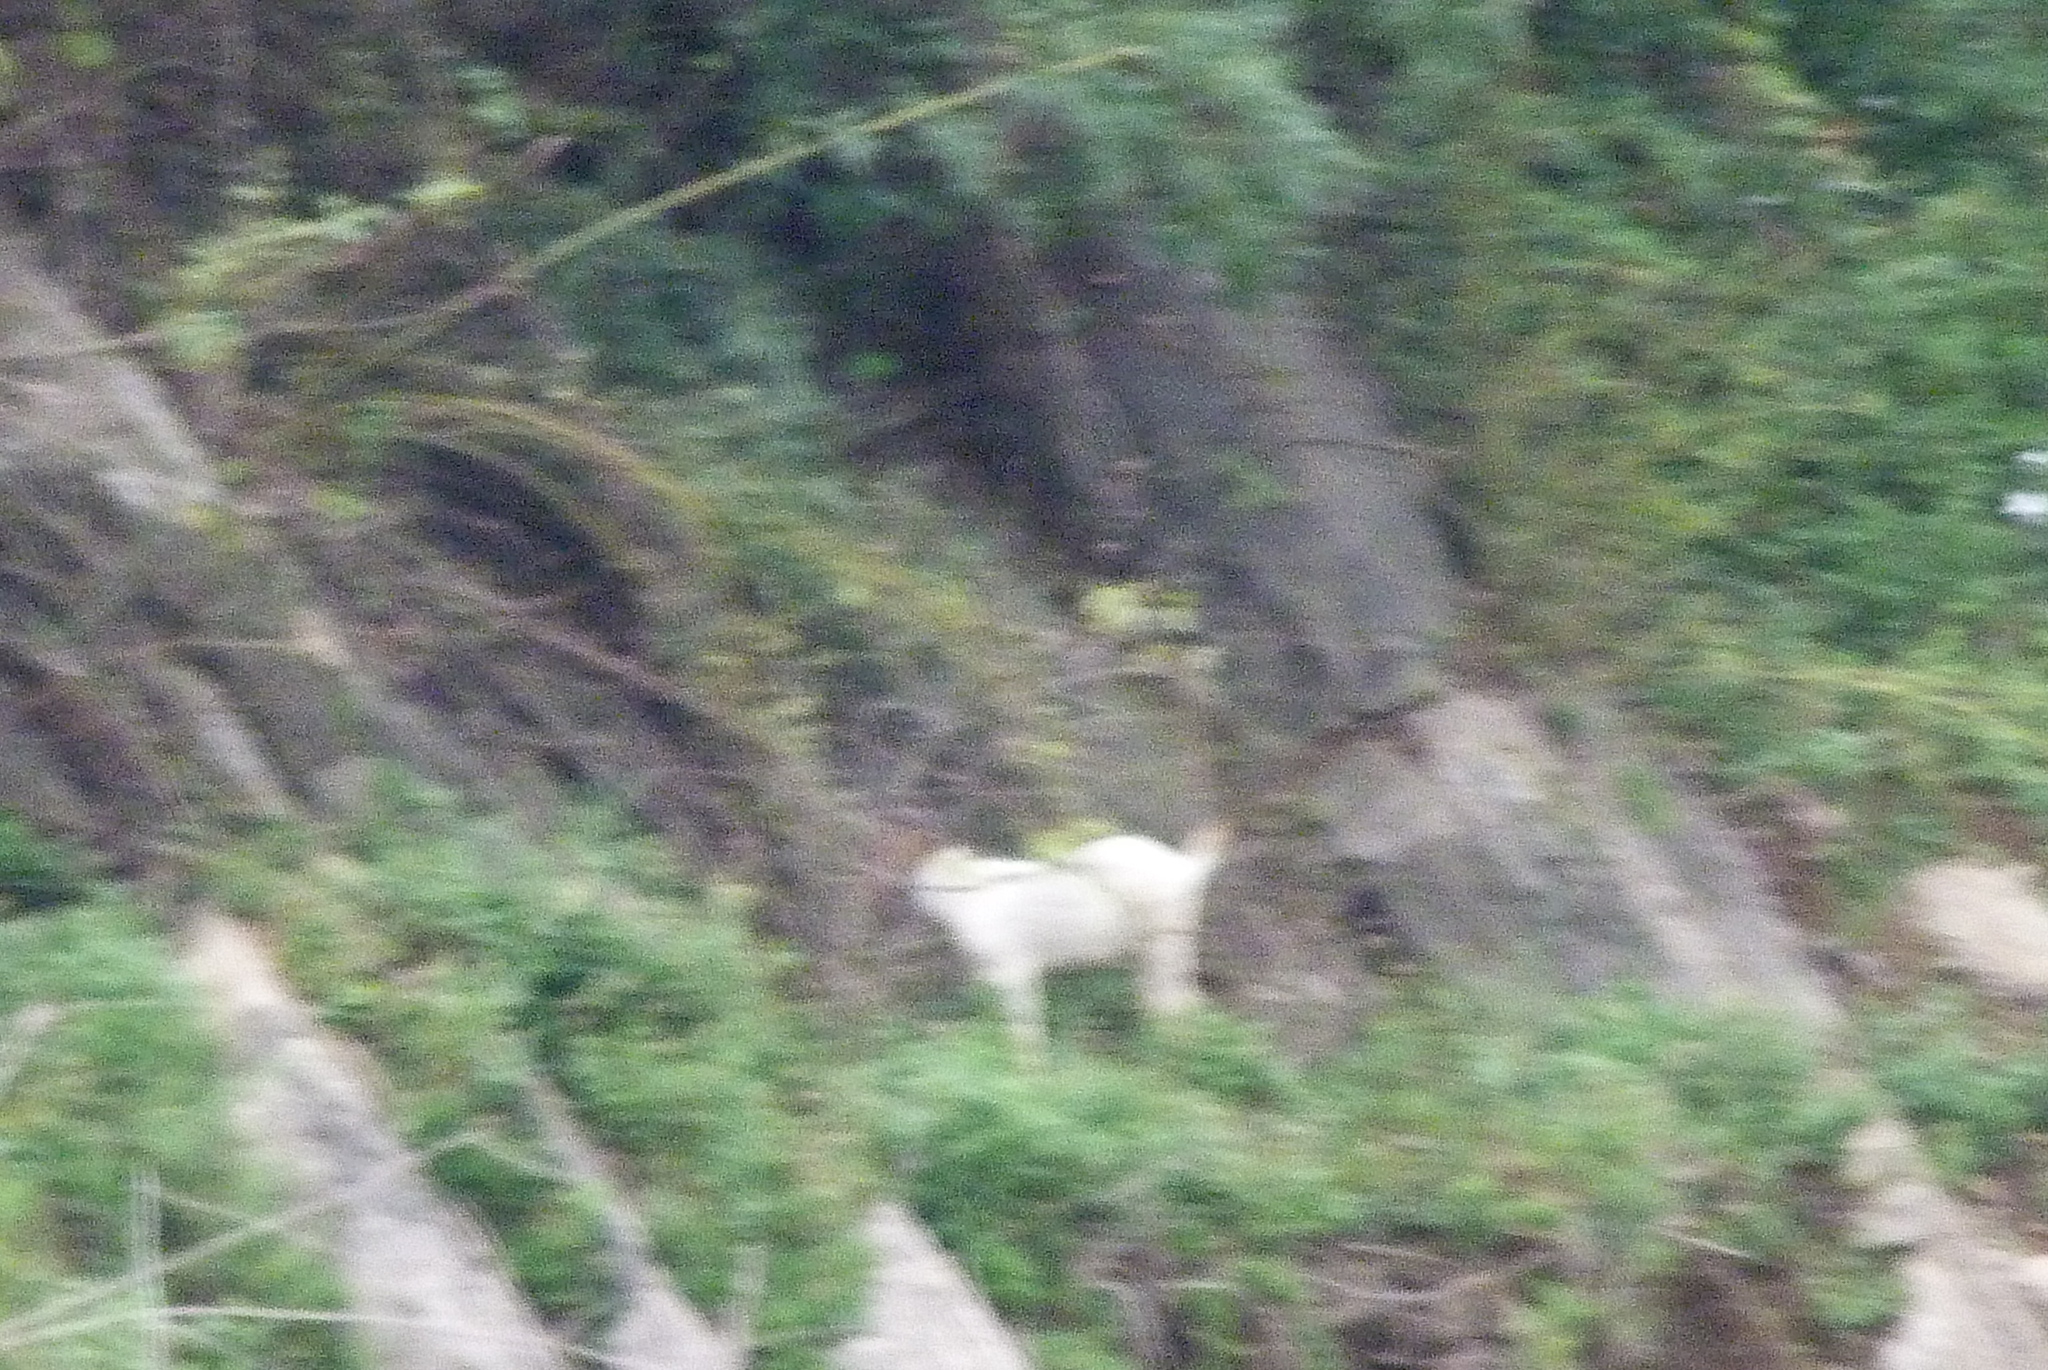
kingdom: Animalia
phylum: Chordata
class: Mammalia
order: Artiodactyla
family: Bovidae
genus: Capra
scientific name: Capra hircus
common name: Domestic goat
